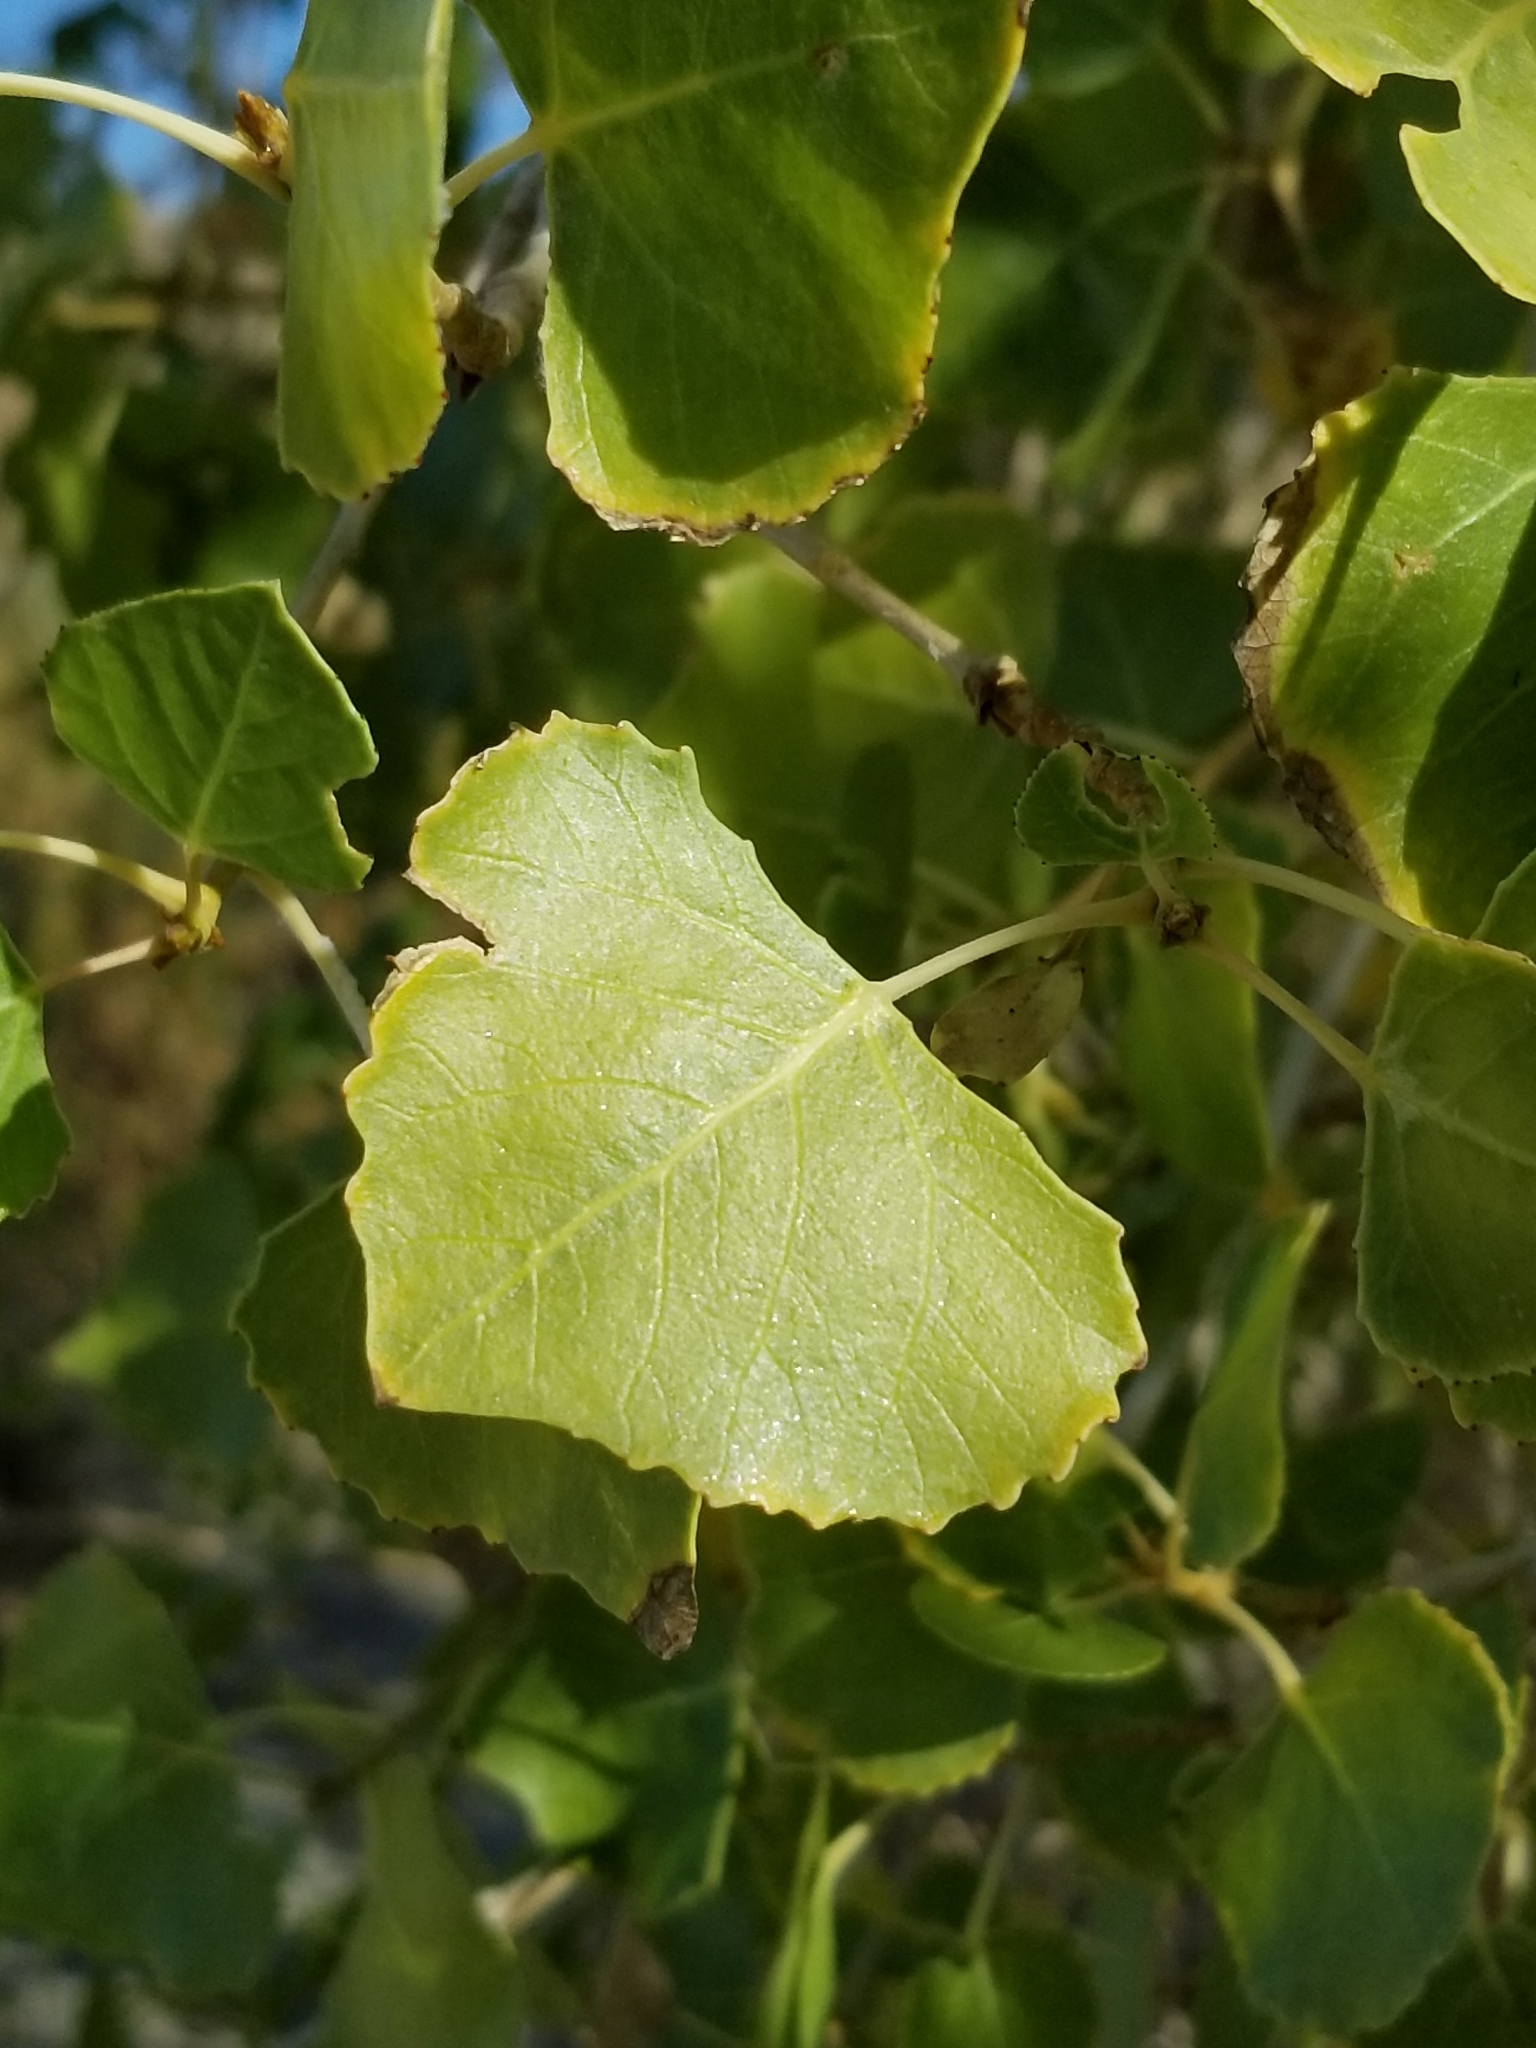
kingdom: Plantae
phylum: Tracheophyta
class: Magnoliopsida
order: Malpighiales
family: Salicaceae
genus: Populus
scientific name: Populus fremontii
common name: Fremont's cottonwood
